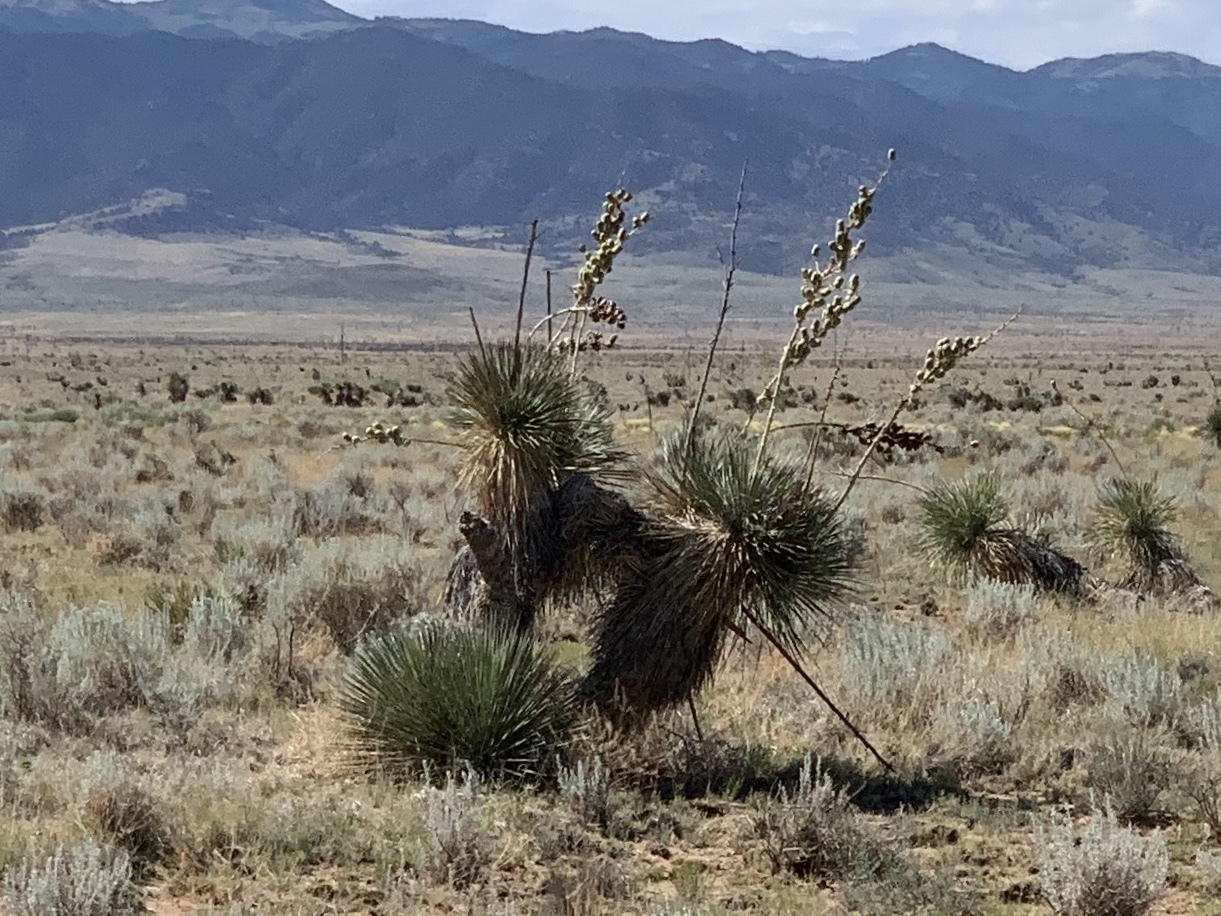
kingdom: Plantae
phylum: Tracheophyta
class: Liliopsida
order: Asparagales
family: Asparagaceae
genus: Yucca
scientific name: Yucca elata
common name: Palmella
